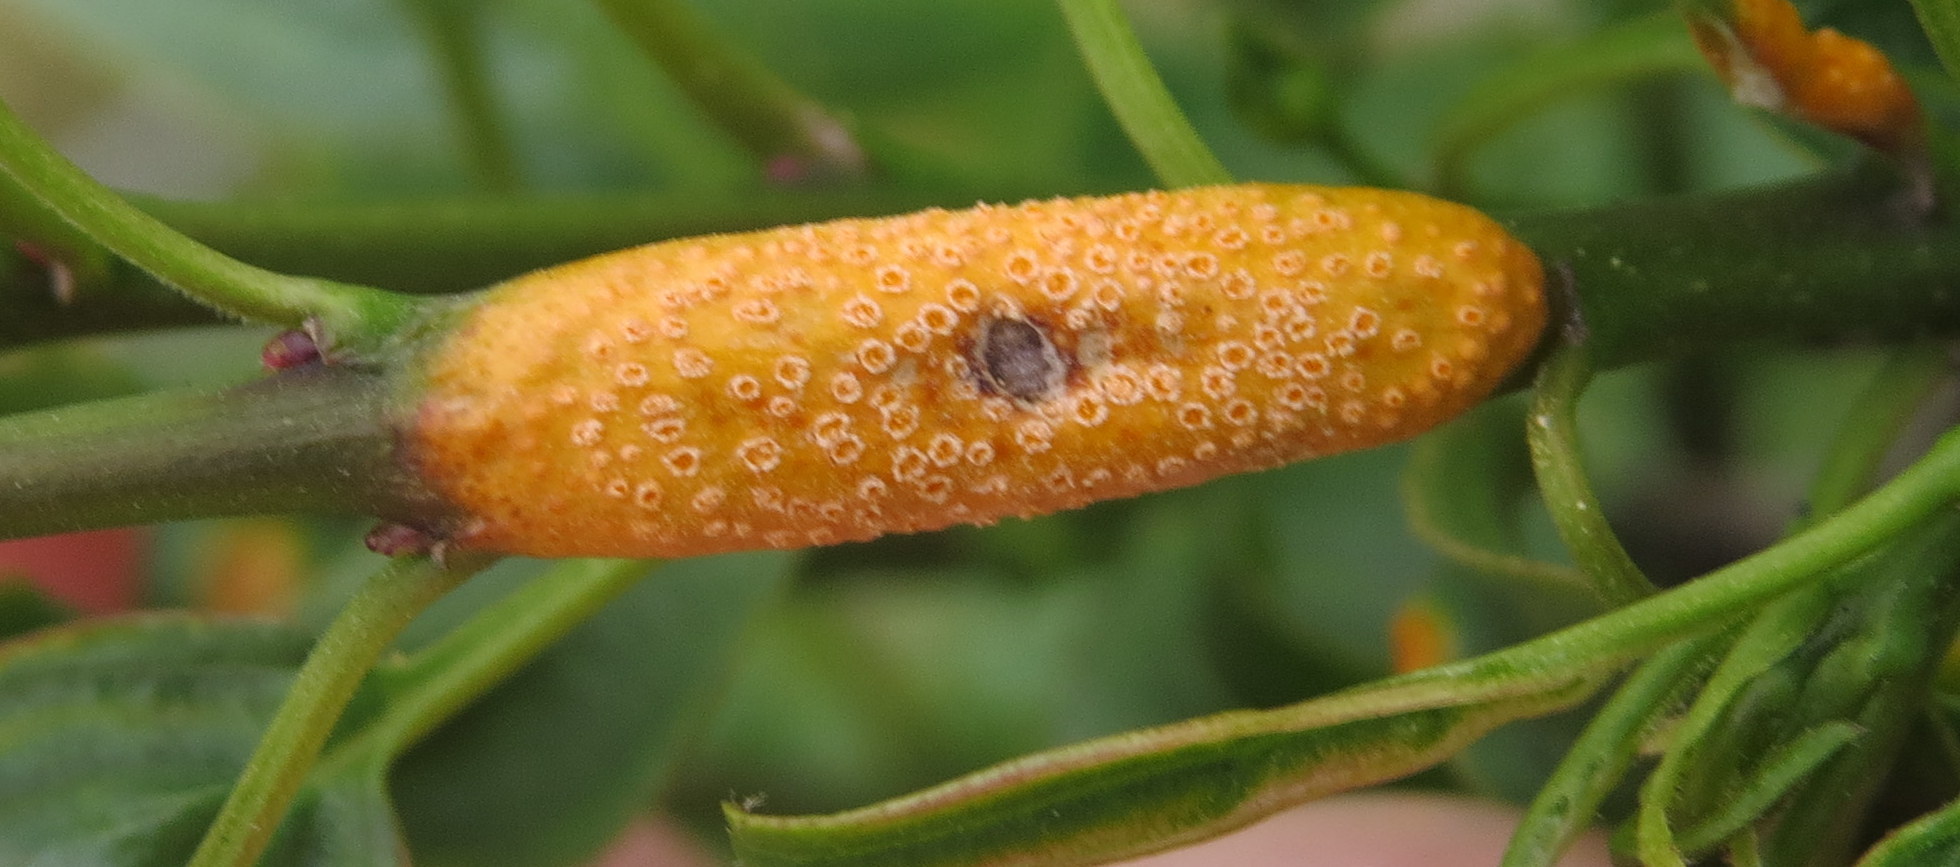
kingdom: Fungi
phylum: Basidiomycota
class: Pucciniomycetes
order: Pucciniales
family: Pucciniaceae
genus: Puccinia
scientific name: Puccinia coronata
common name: Crown rust
